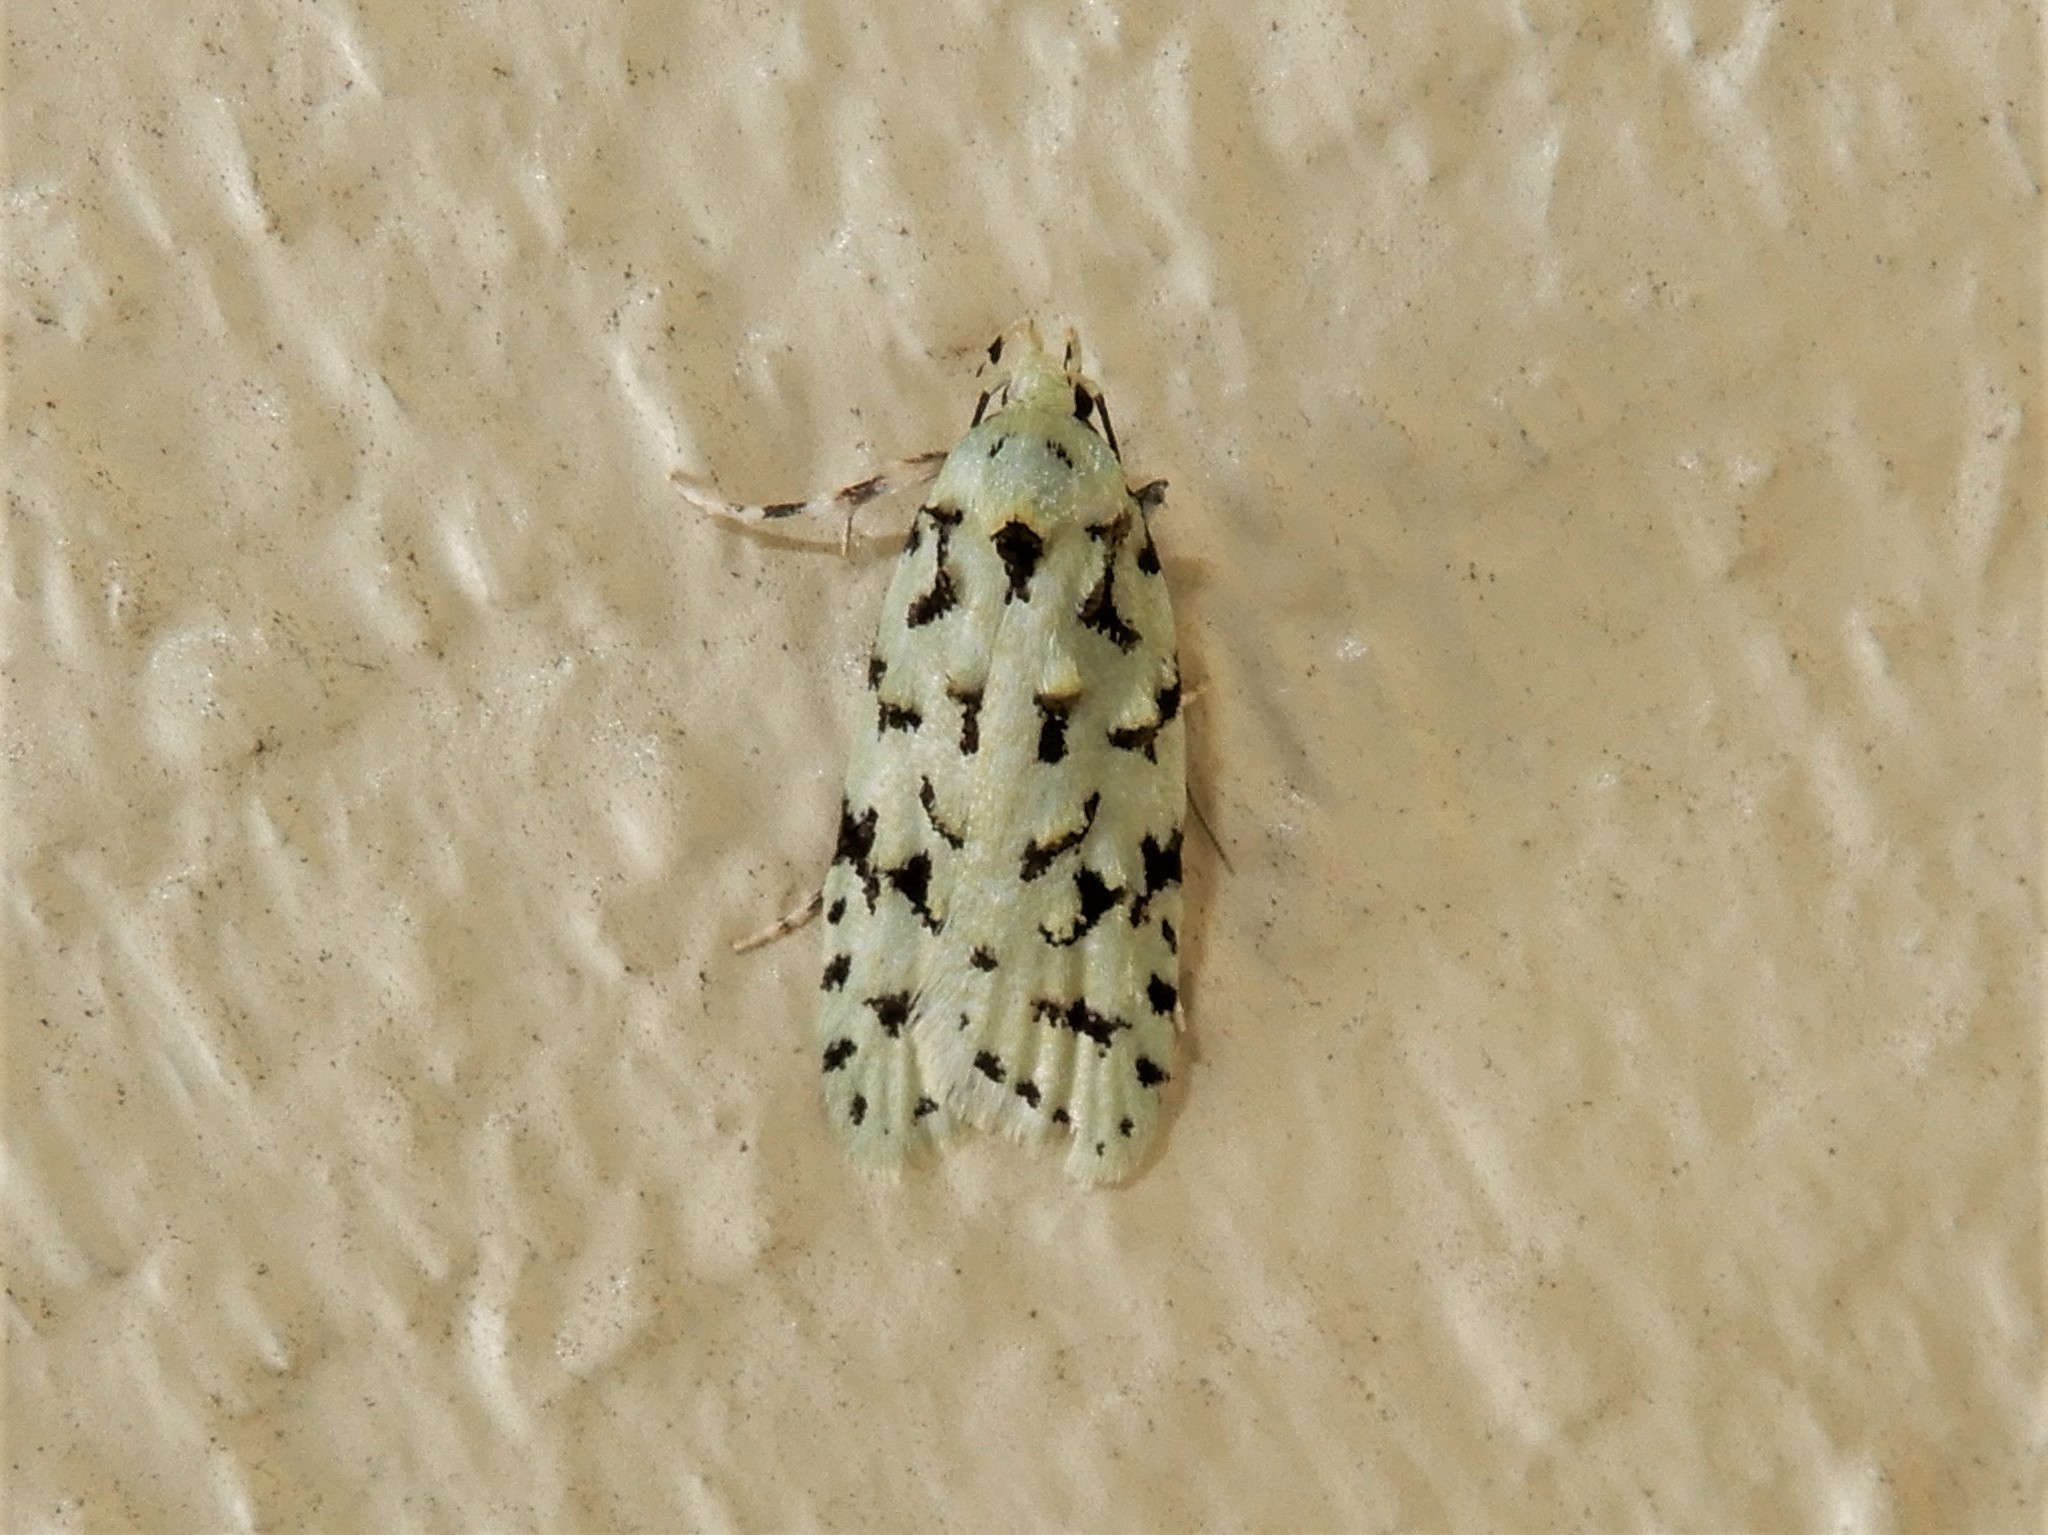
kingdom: Animalia
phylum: Arthropoda
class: Insecta
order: Lepidoptera
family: Oecophoridae
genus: Izatha
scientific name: Izatha peroneanella
